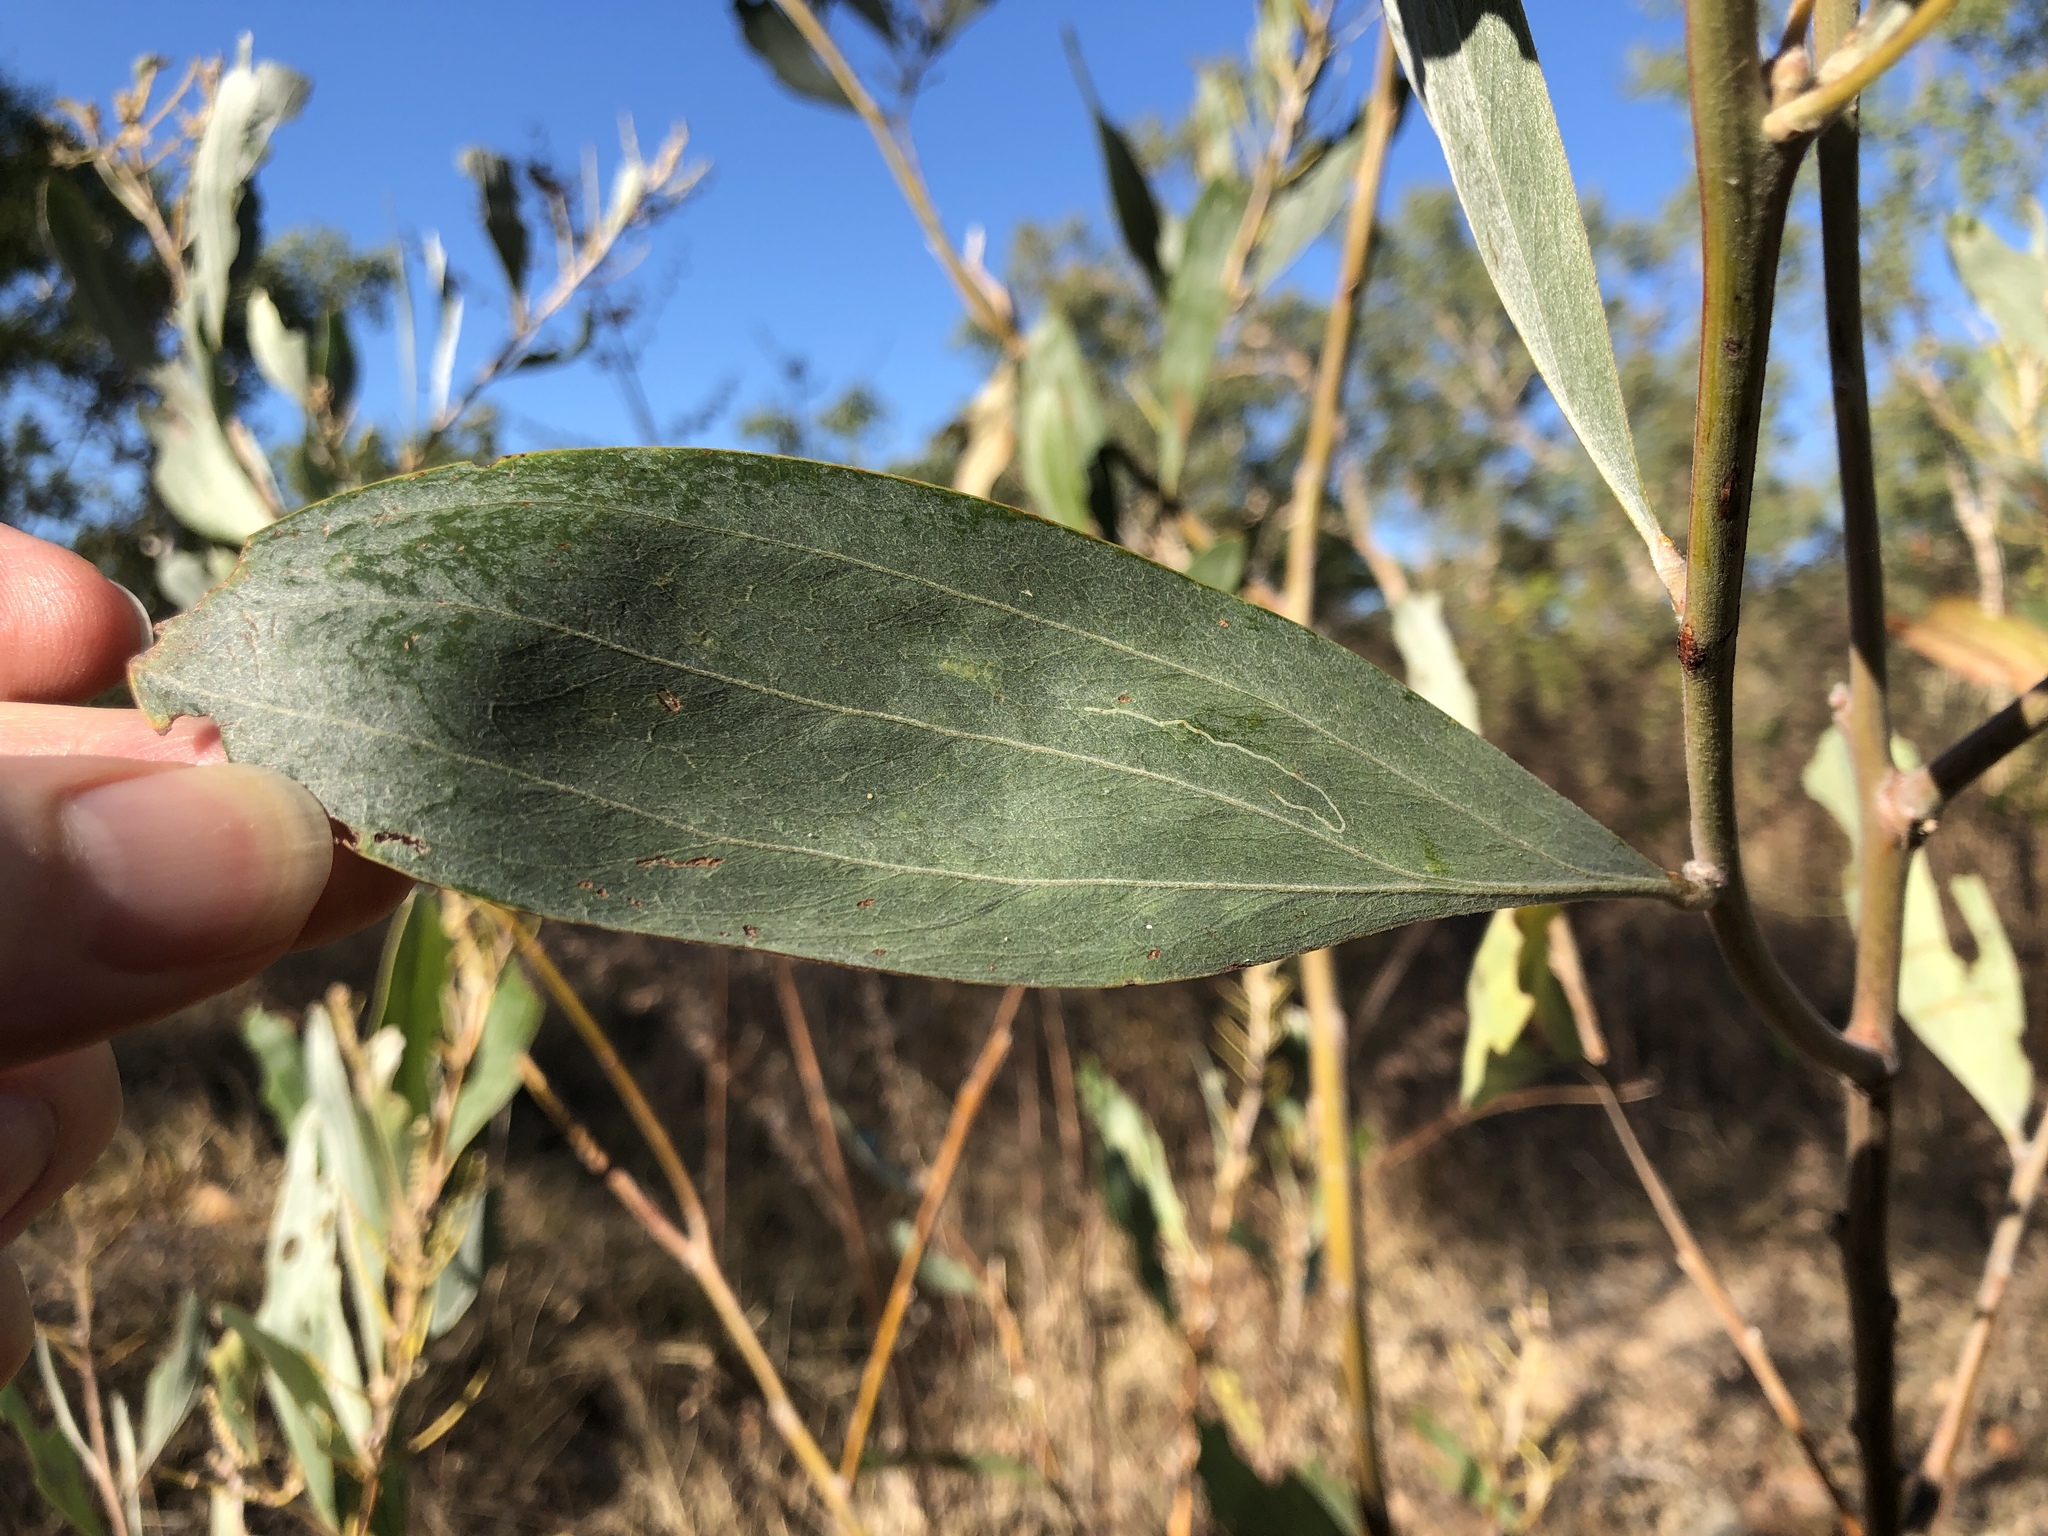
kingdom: Plantae
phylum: Tracheophyta
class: Magnoliopsida
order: Fabales
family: Fabaceae
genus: Acacia
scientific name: Acacia holosericea
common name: Candelabra wattle
